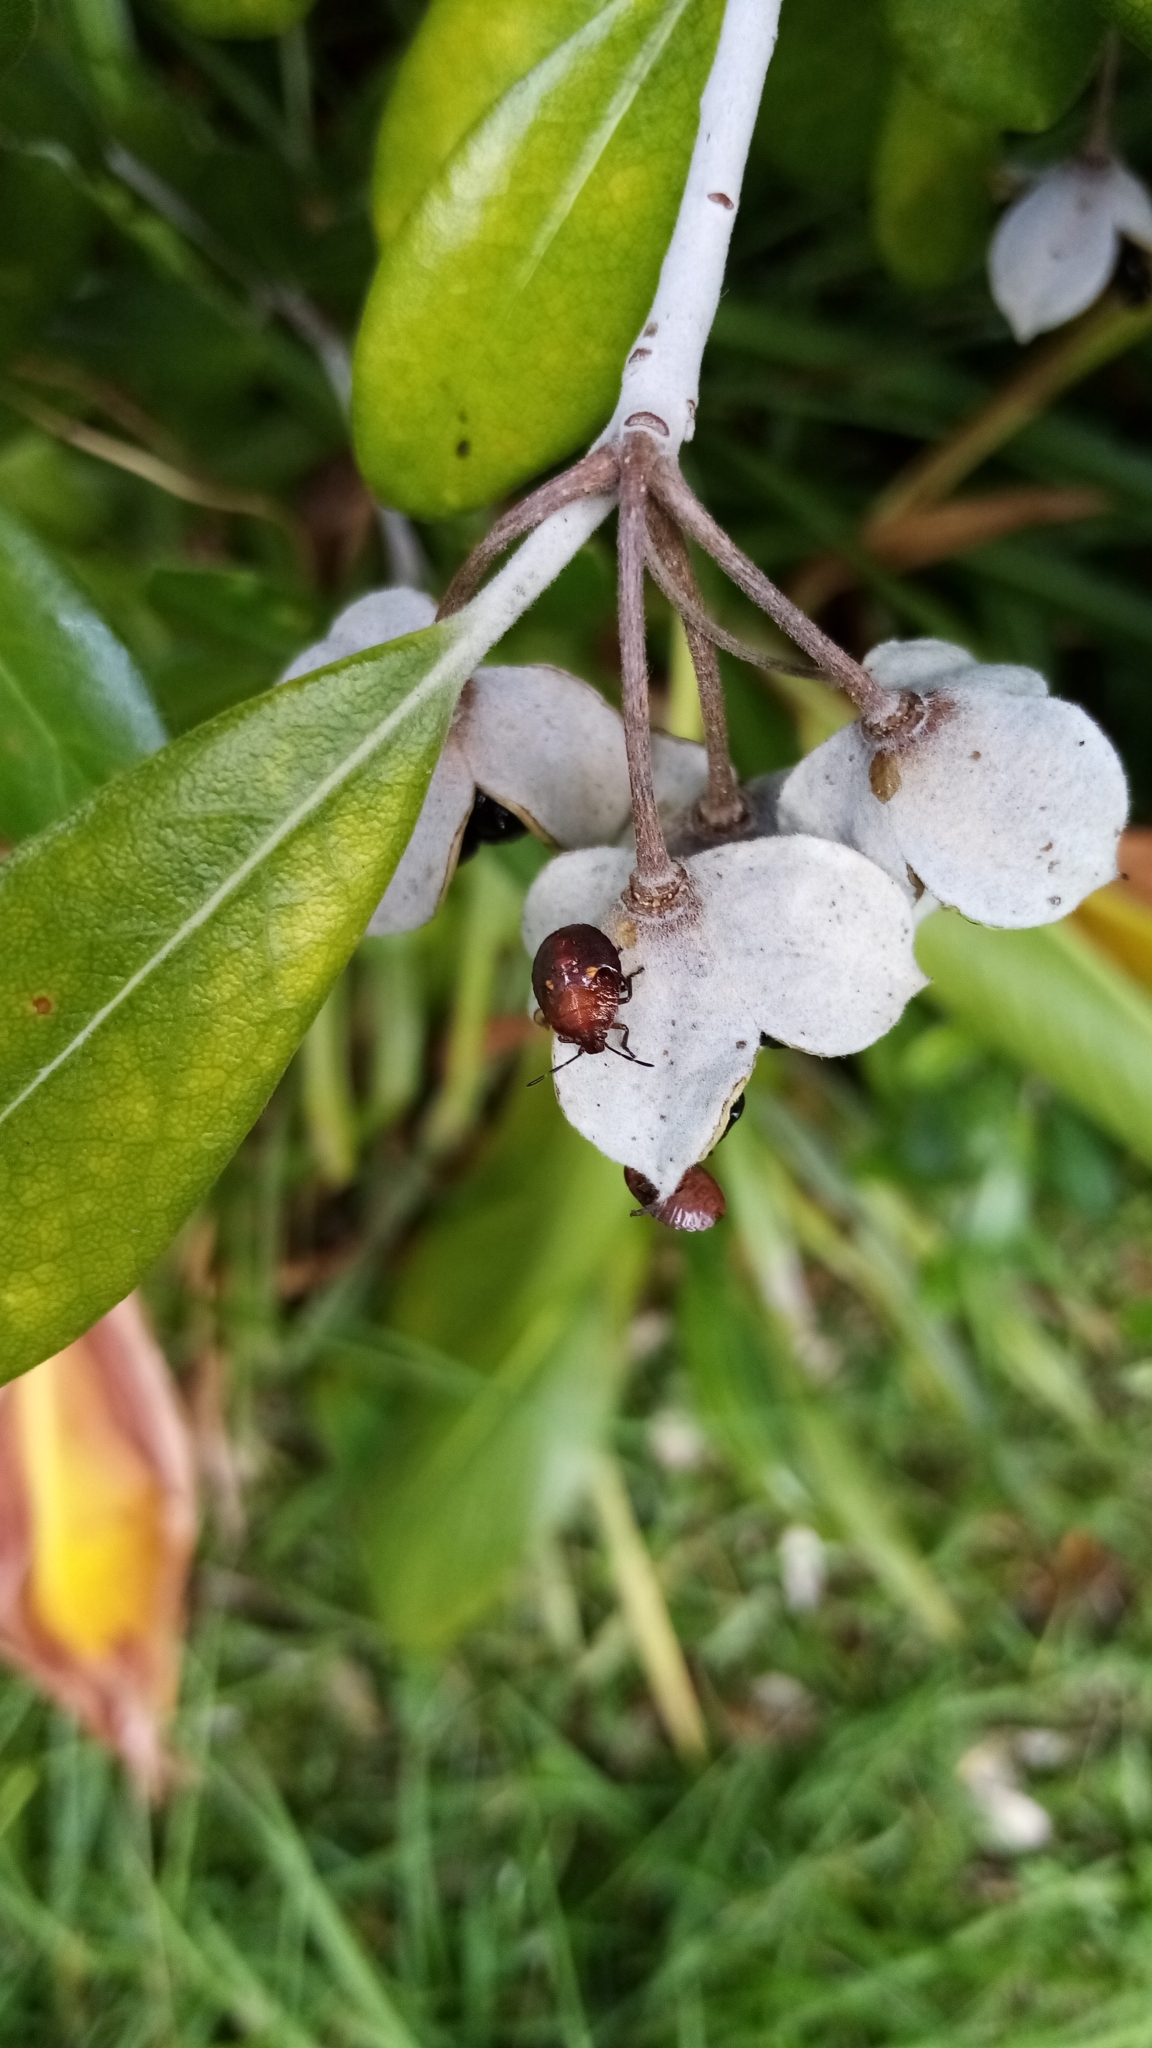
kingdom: Animalia
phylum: Arthropoda
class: Insecta
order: Hemiptera
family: Pentatomidae
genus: Monteithiella
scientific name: Monteithiella
